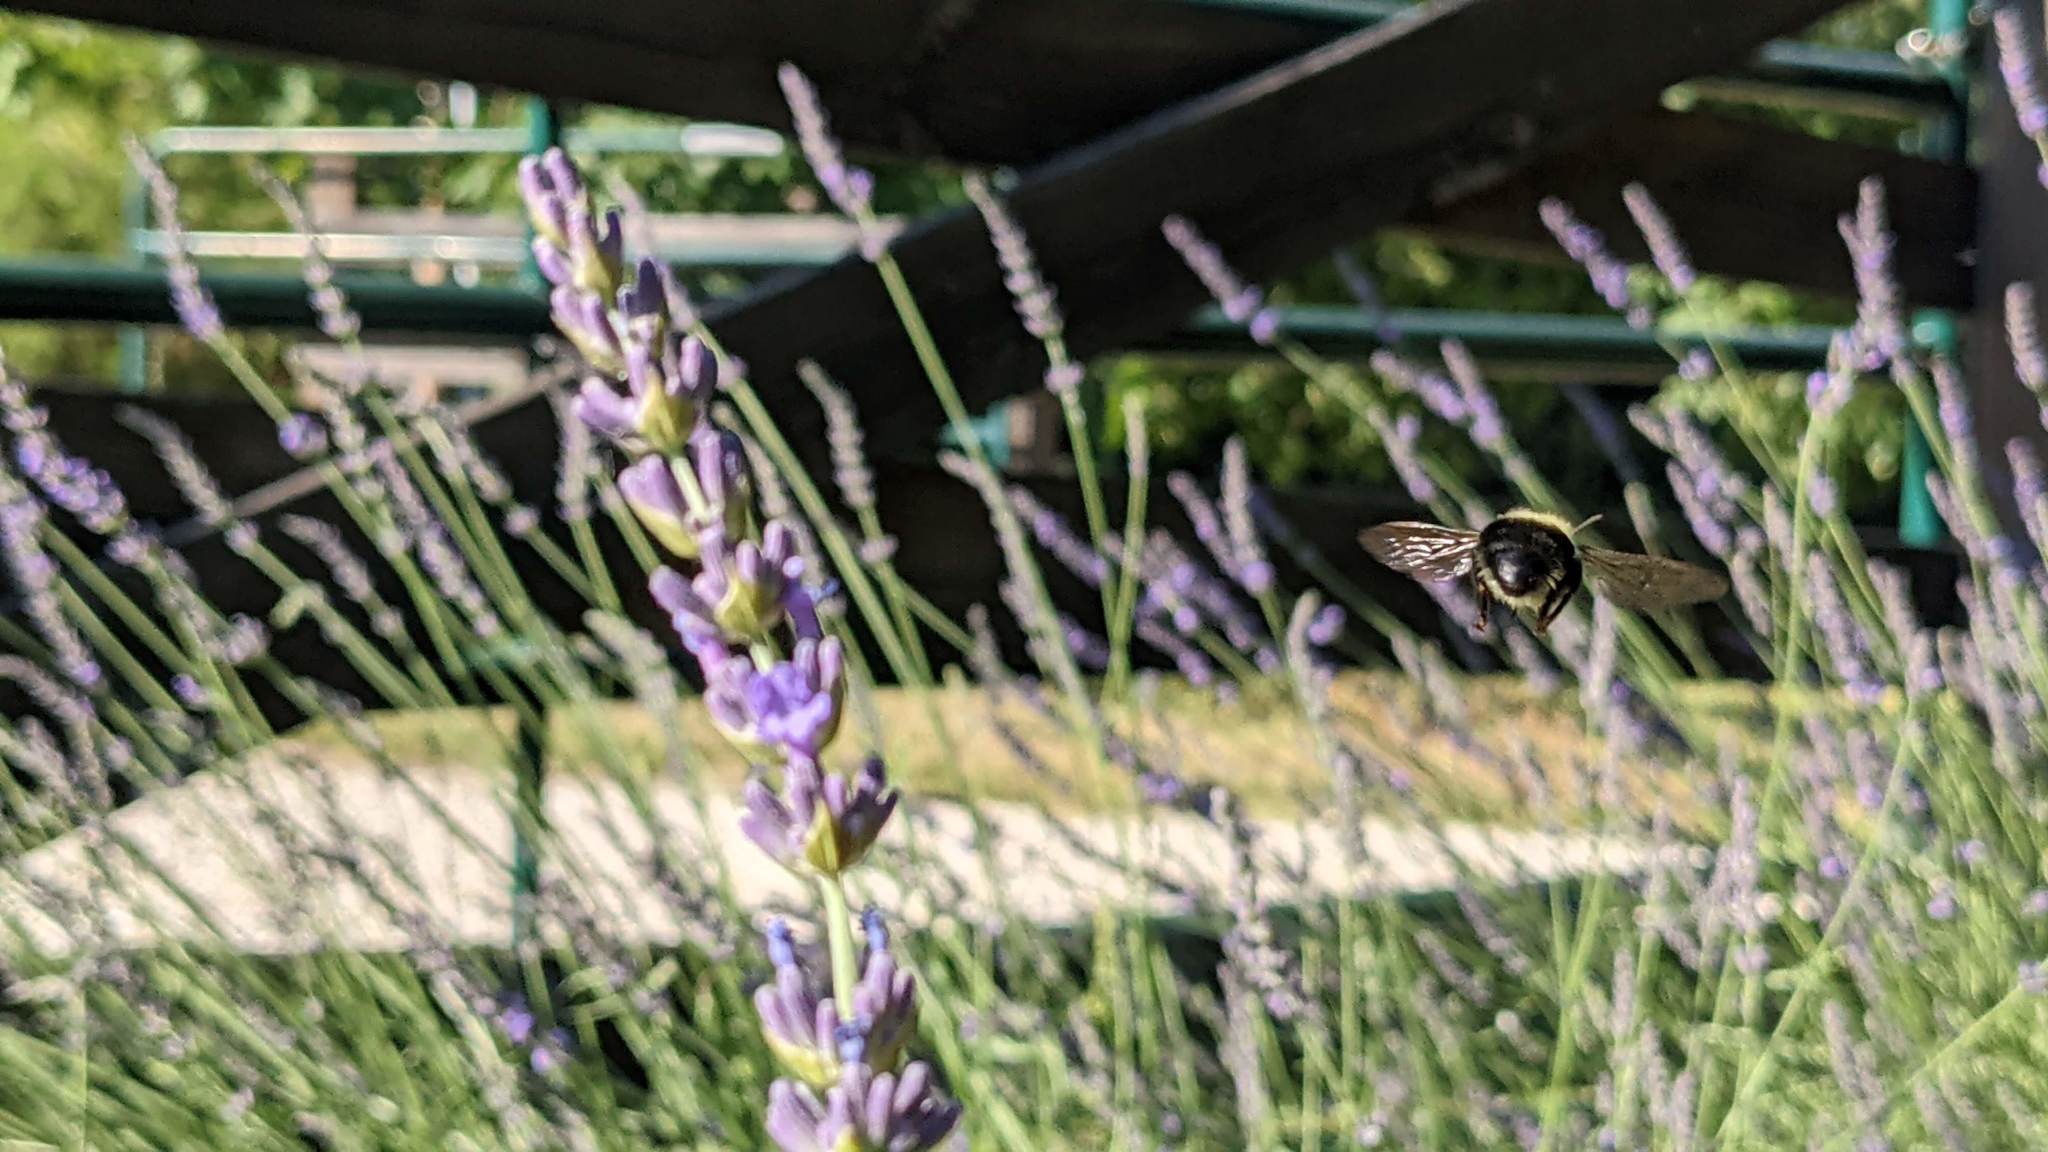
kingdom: Animalia
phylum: Arthropoda
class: Insecta
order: Hymenoptera
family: Apidae
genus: Bombus
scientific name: Bombus bimaculatus
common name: Two-spotted bumble bee
